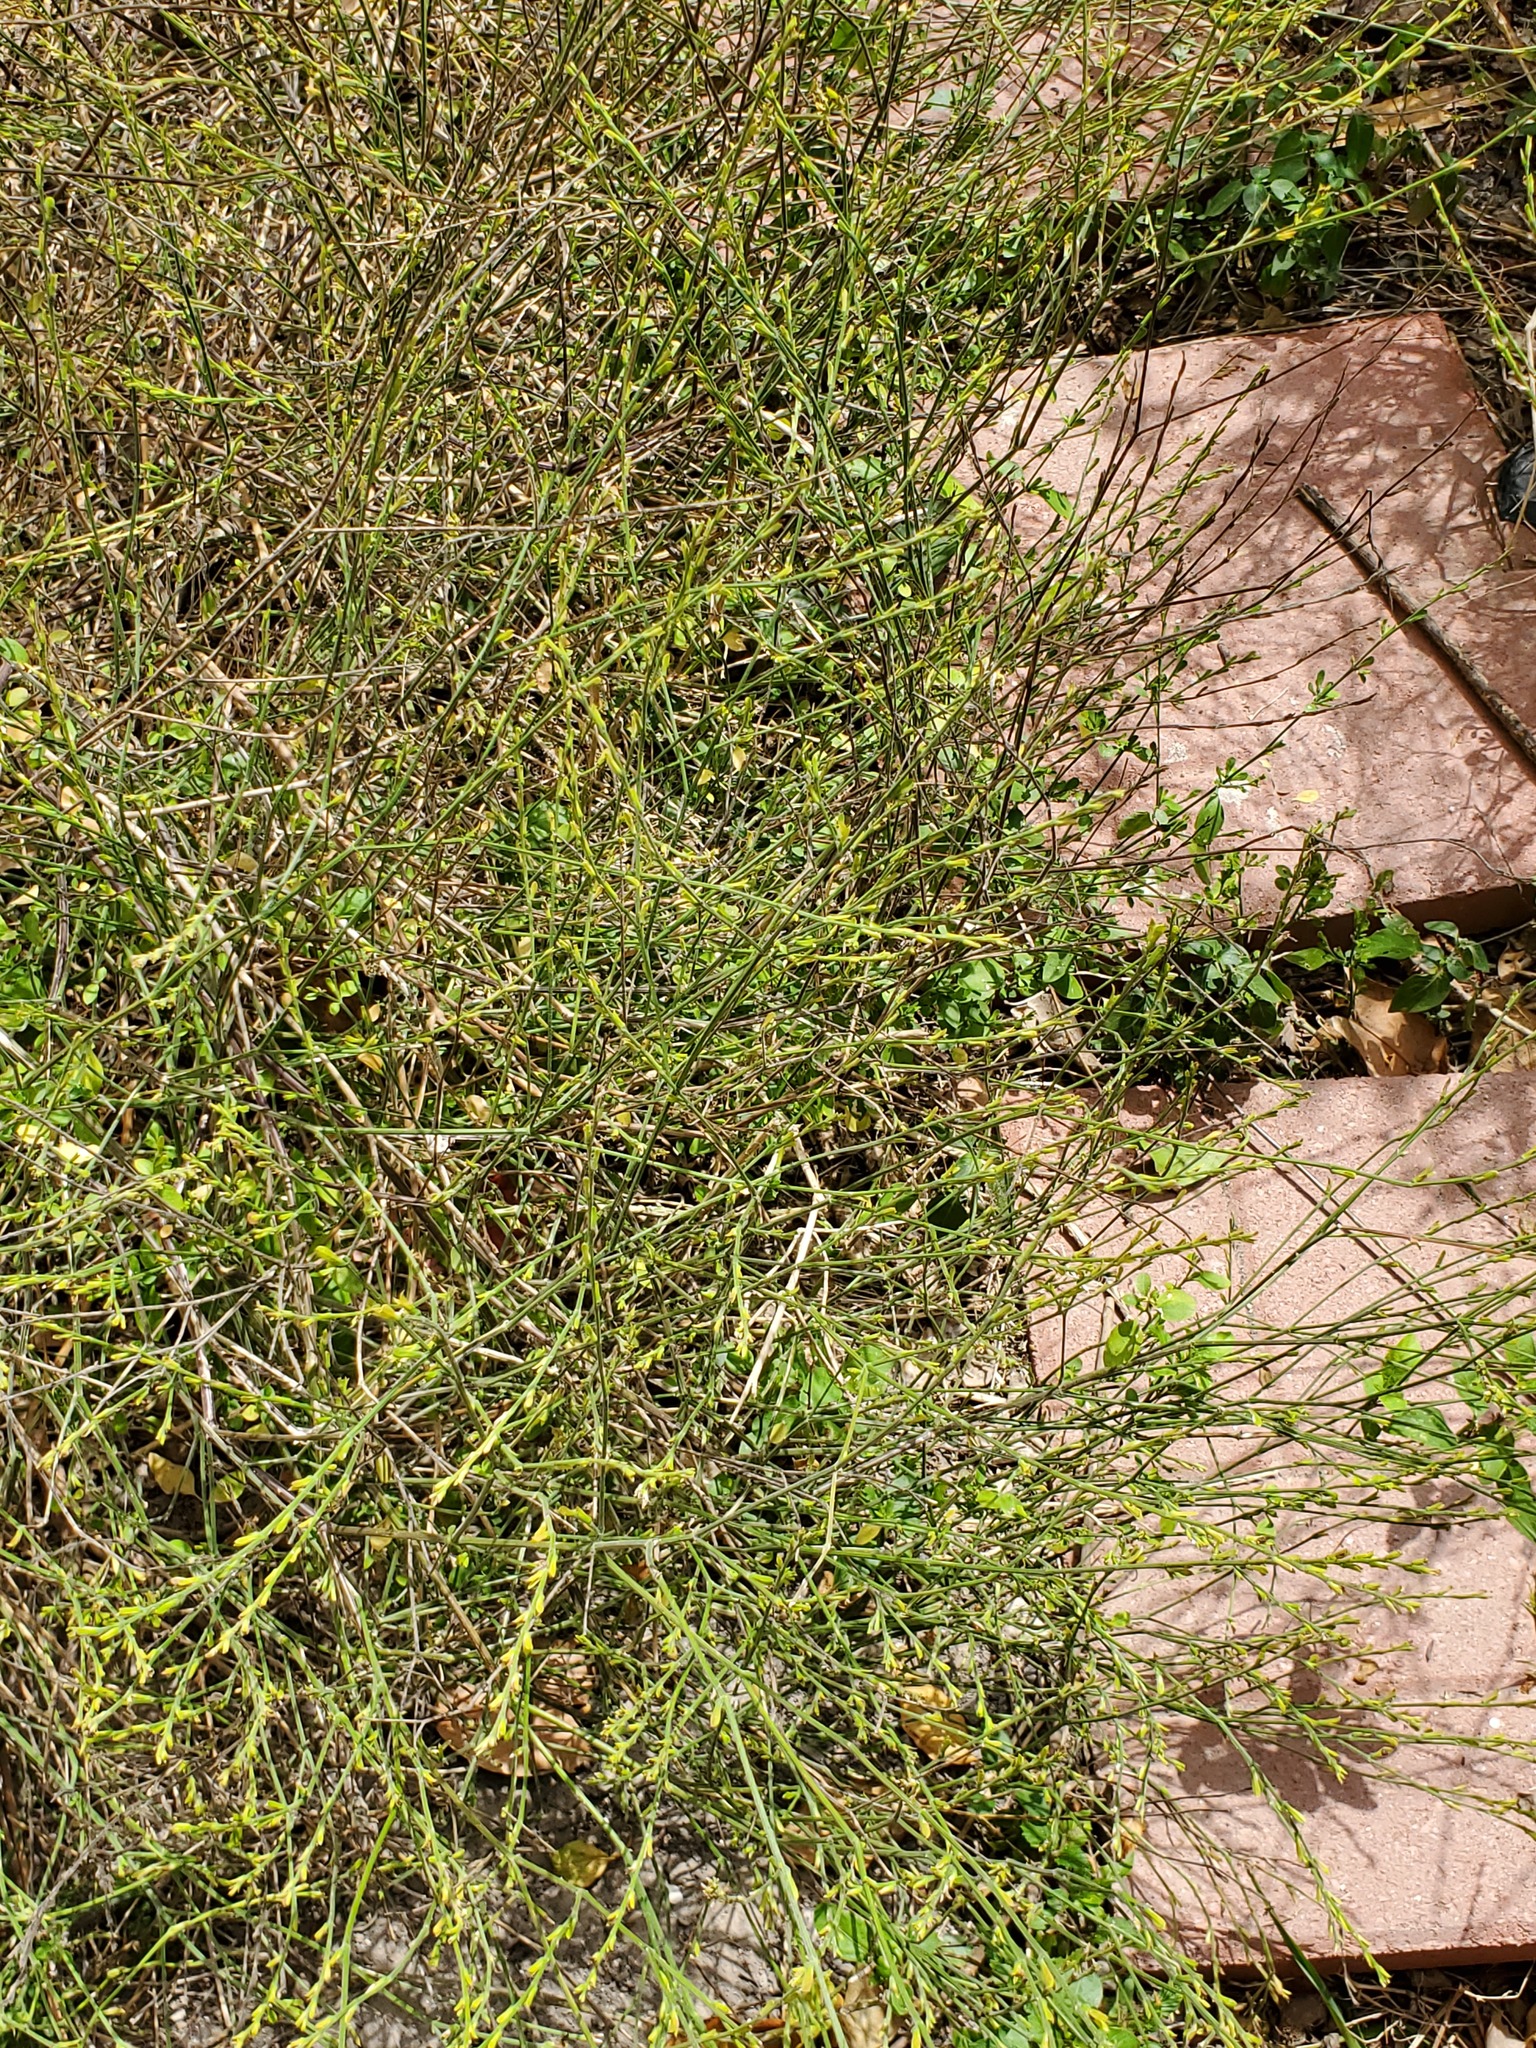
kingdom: Plantae
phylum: Tracheophyta
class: Magnoliopsida
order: Lamiales
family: Acanthaceae
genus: Dicliptera
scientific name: Dicliptera sexangularis
